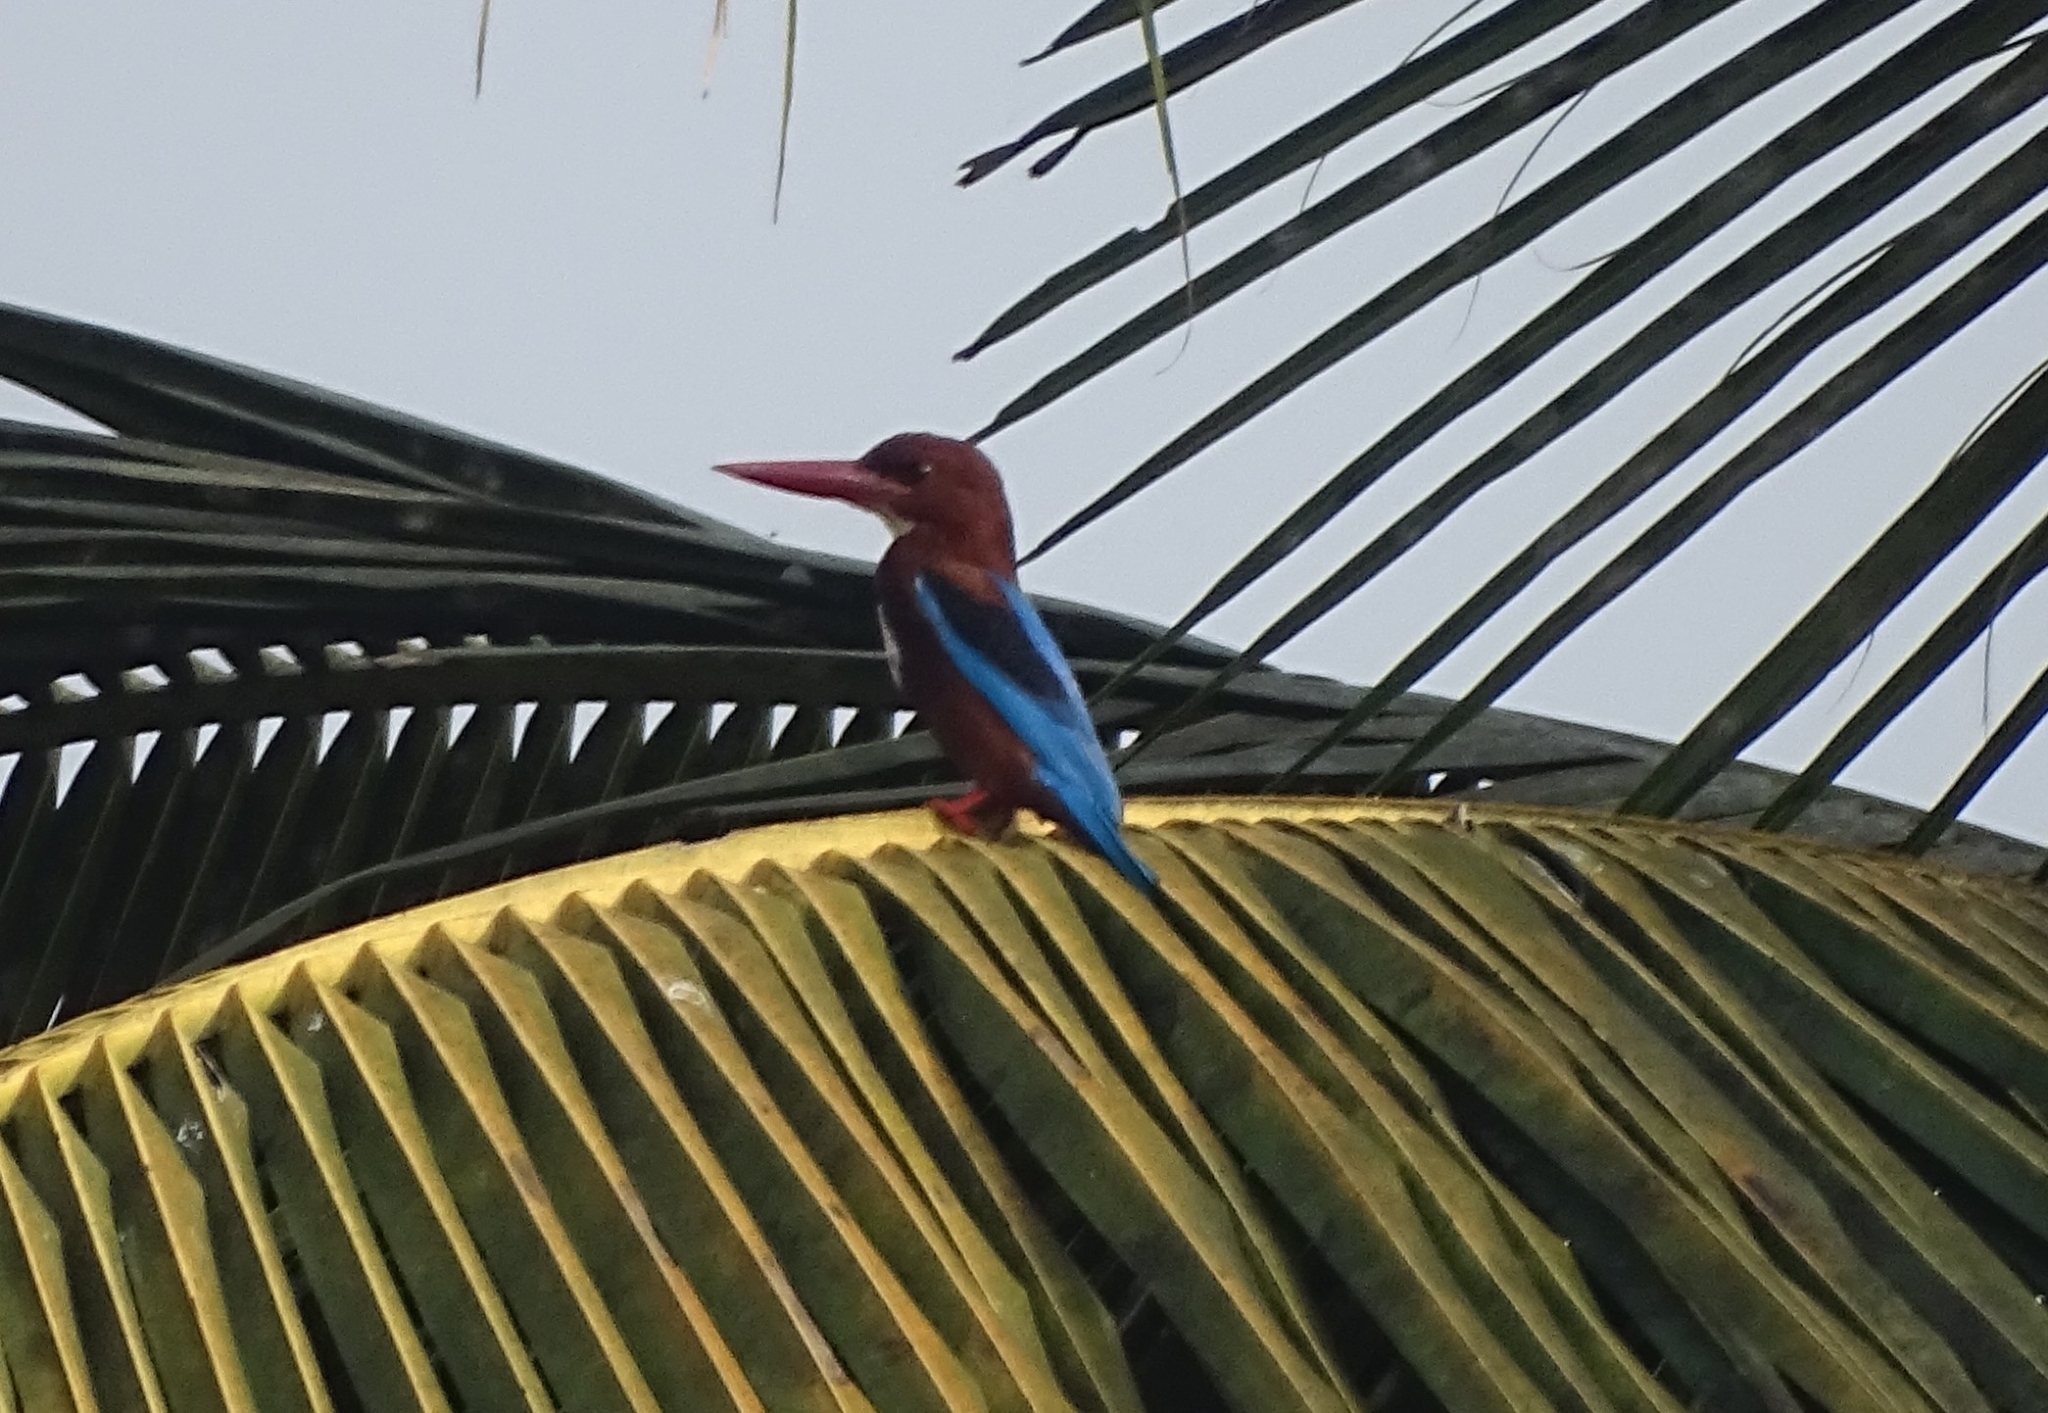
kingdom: Animalia
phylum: Chordata
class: Aves
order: Coraciiformes
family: Alcedinidae
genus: Halcyon
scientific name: Halcyon smyrnensis
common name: White-throated kingfisher
